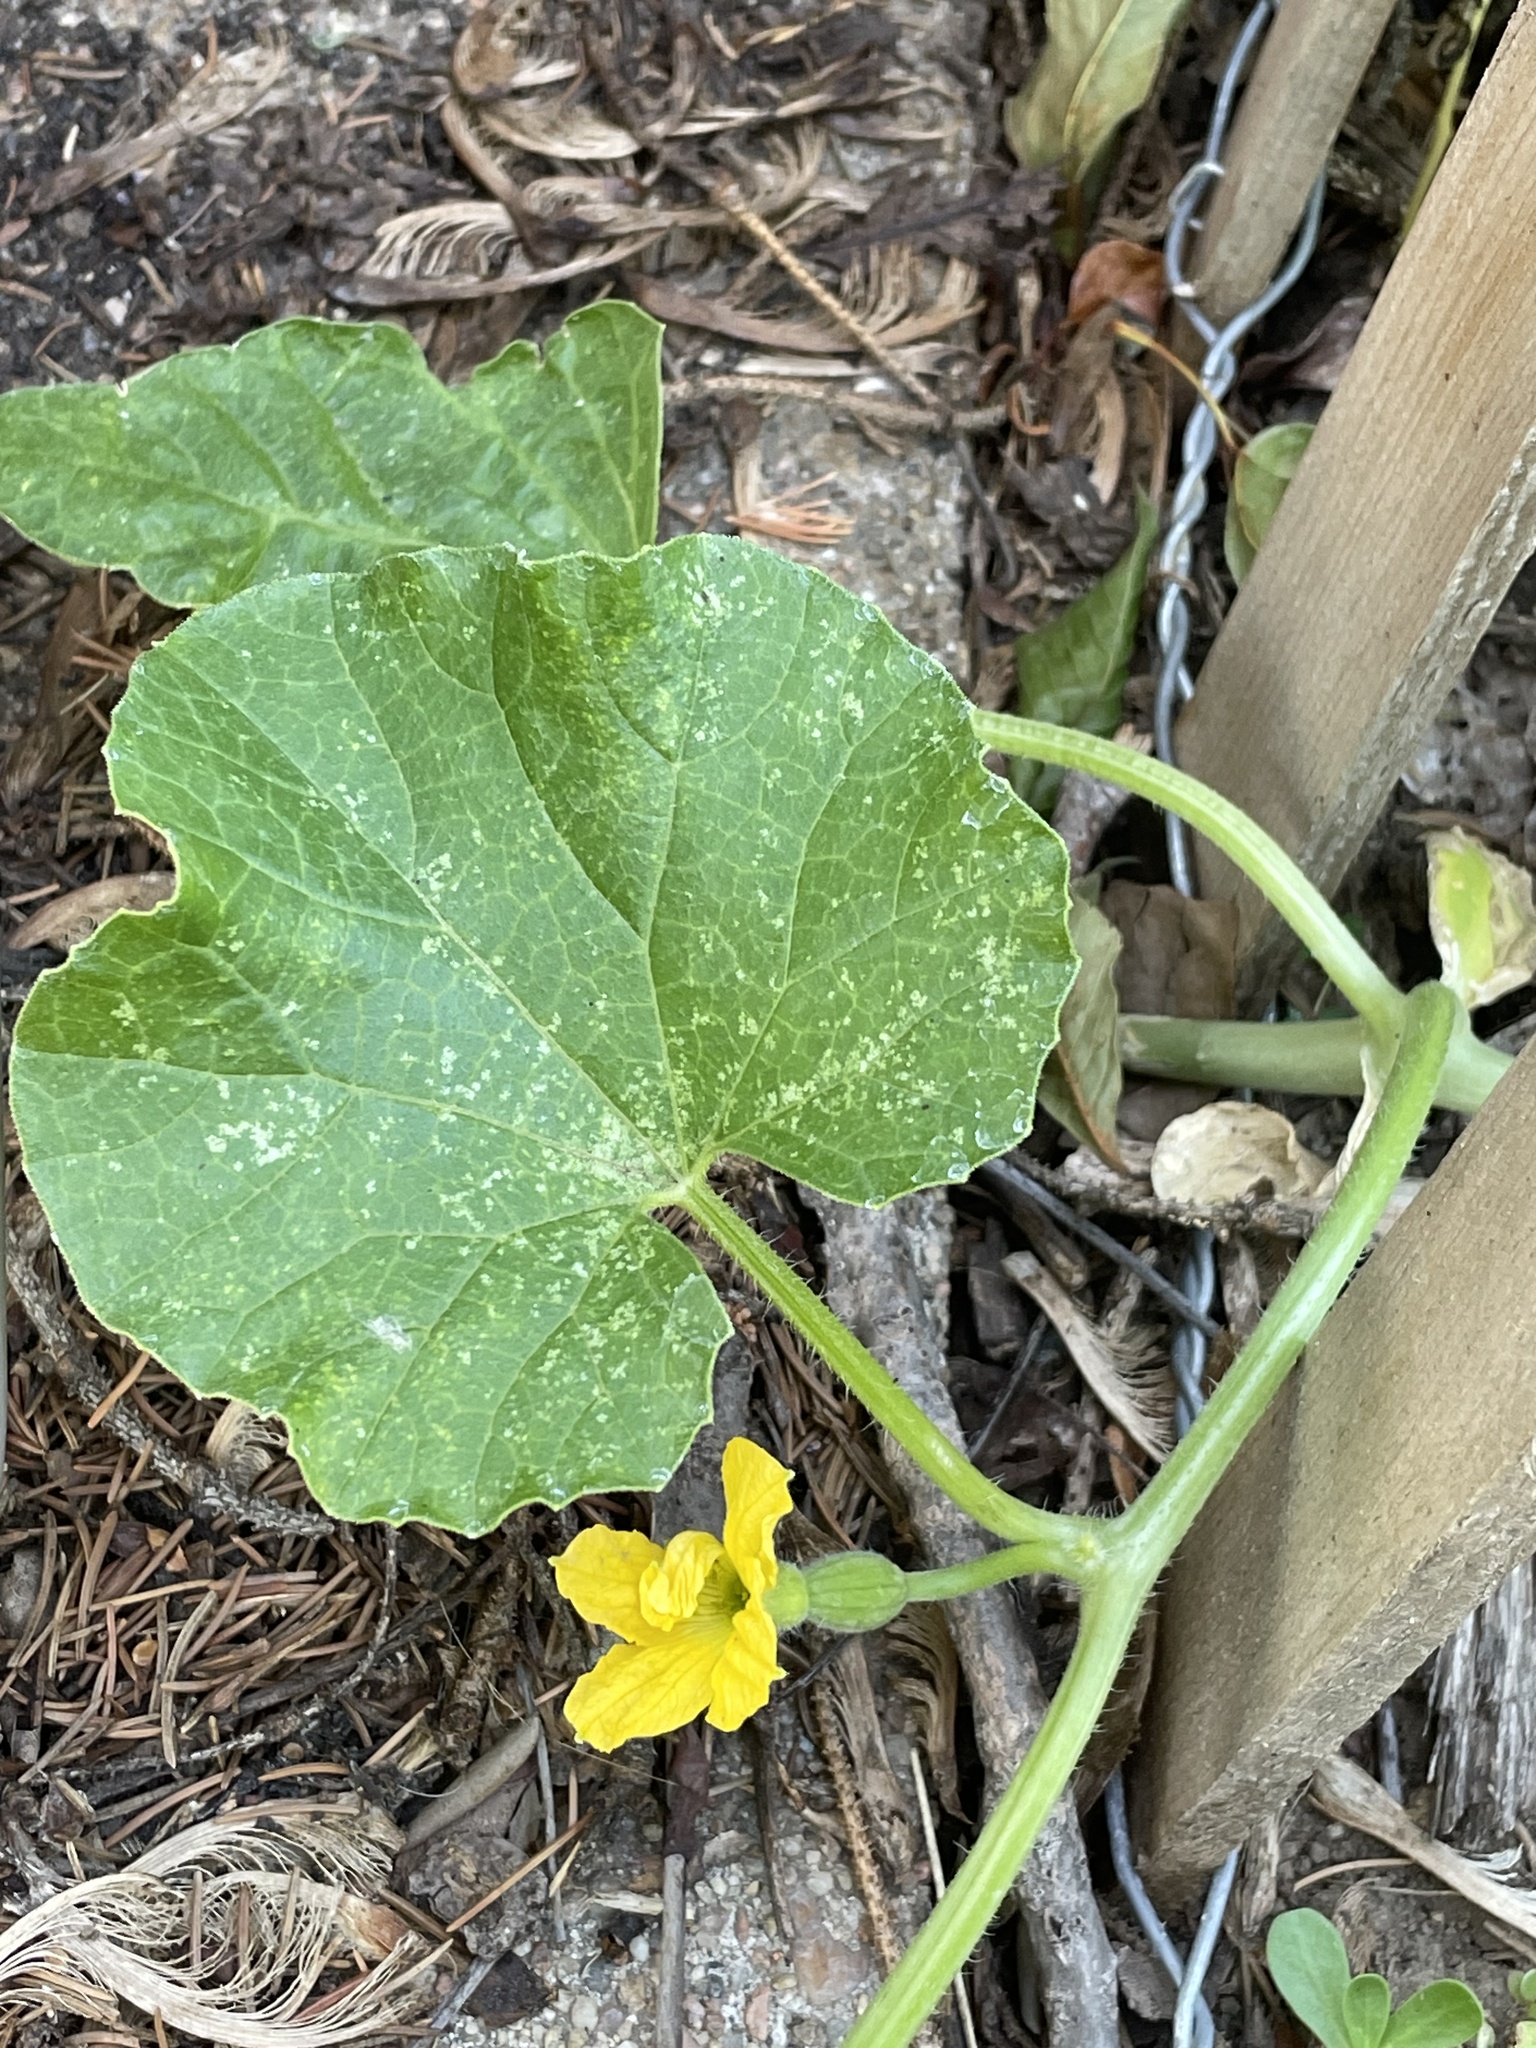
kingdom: Plantae
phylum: Tracheophyta
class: Magnoliopsida
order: Cucurbitales
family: Cucurbitaceae
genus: Cucumis
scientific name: Cucumis melo
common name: Melon
